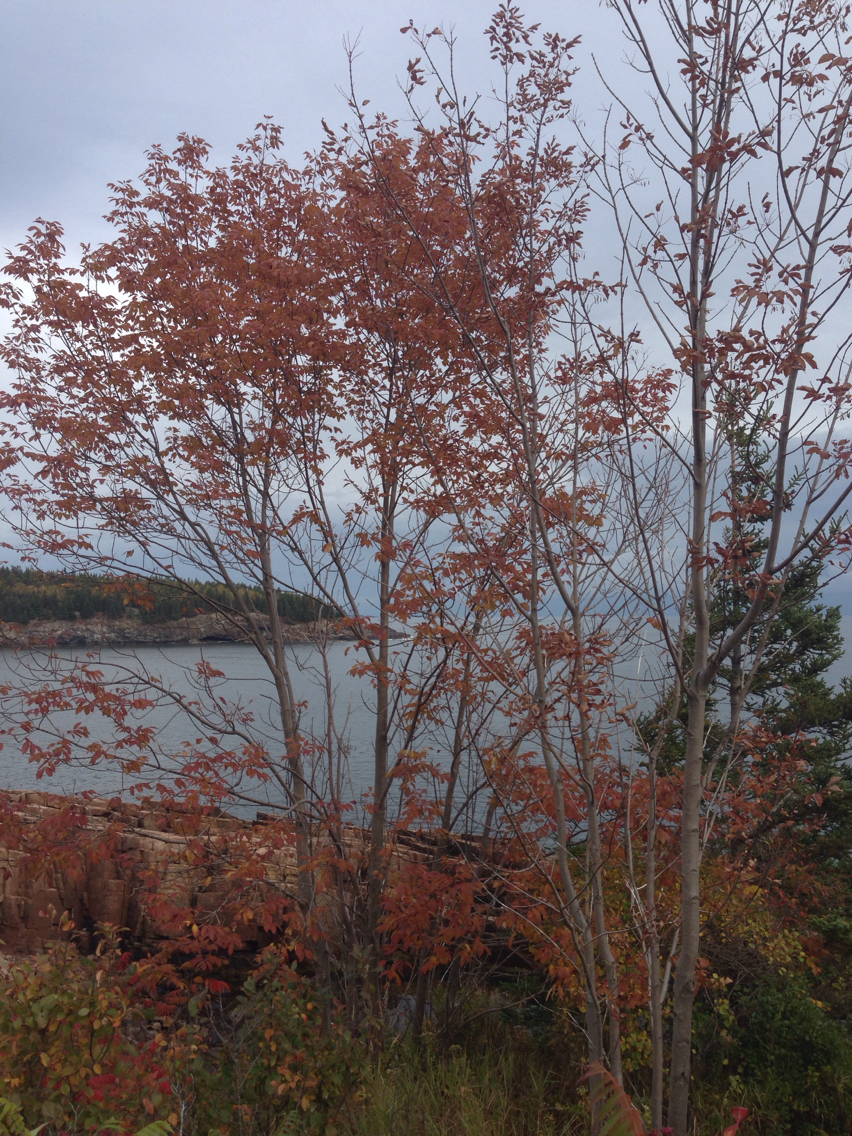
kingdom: Plantae
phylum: Tracheophyta
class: Magnoliopsida
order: Lamiales
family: Oleaceae
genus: Fraxinus
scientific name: Fraxinus americana
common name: White ash
